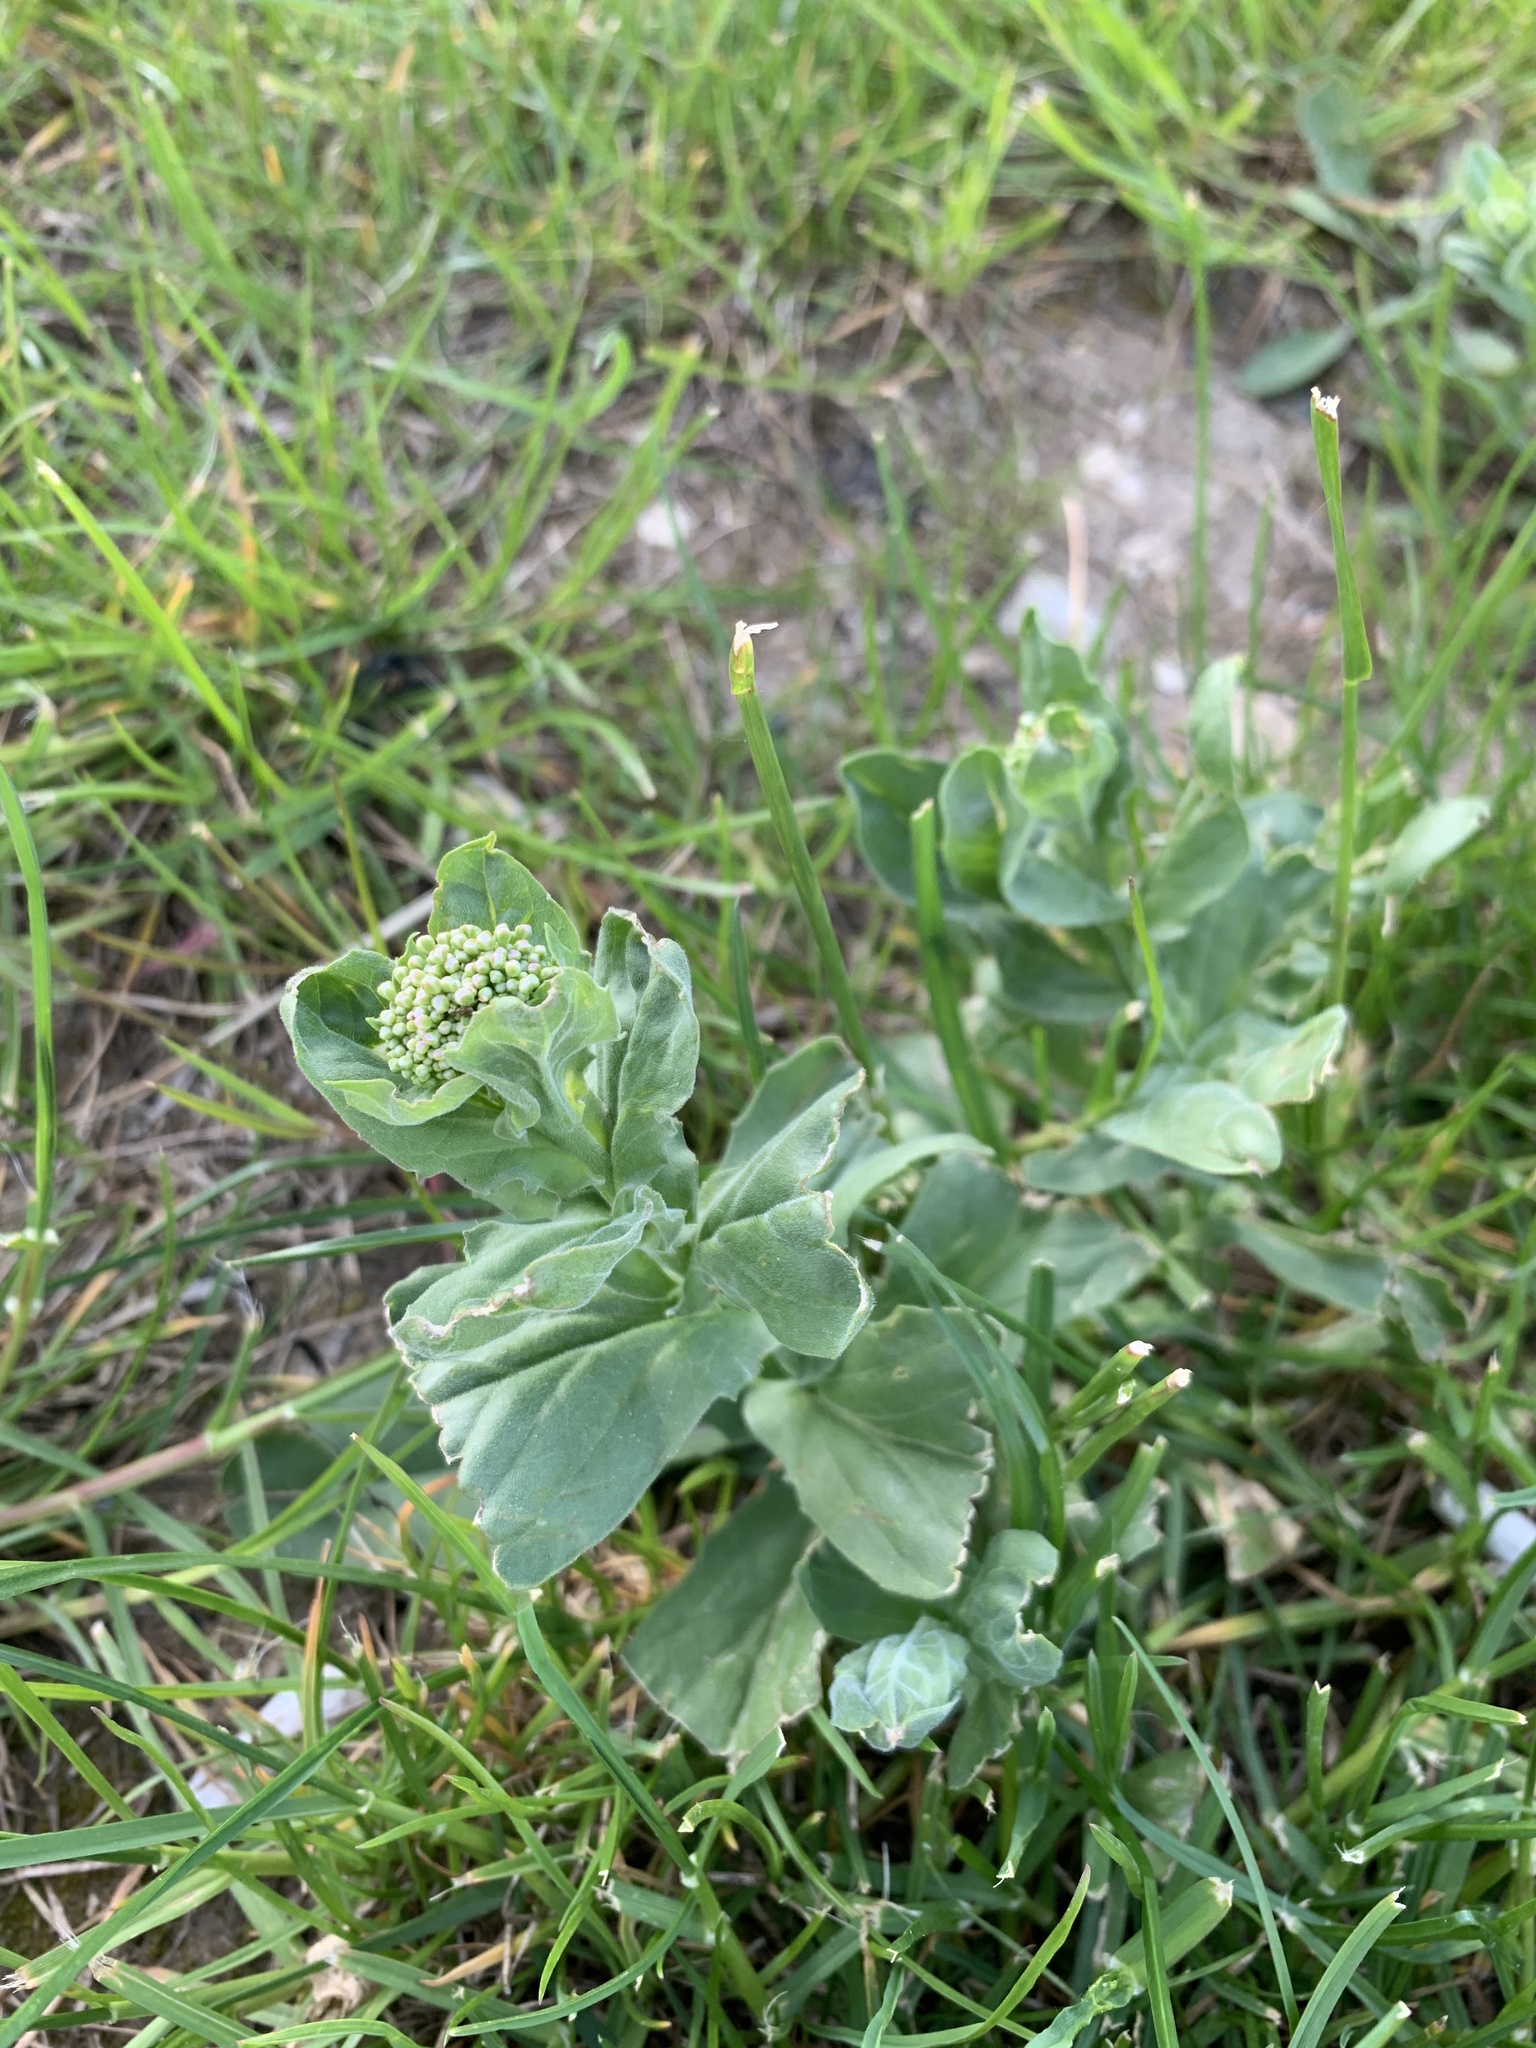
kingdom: Plantae
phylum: Tracheophyta
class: Magnoliopsida
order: Brassicales
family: Brassicaceae
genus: Lepidium
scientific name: Lepidium draba
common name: Hoary cress
